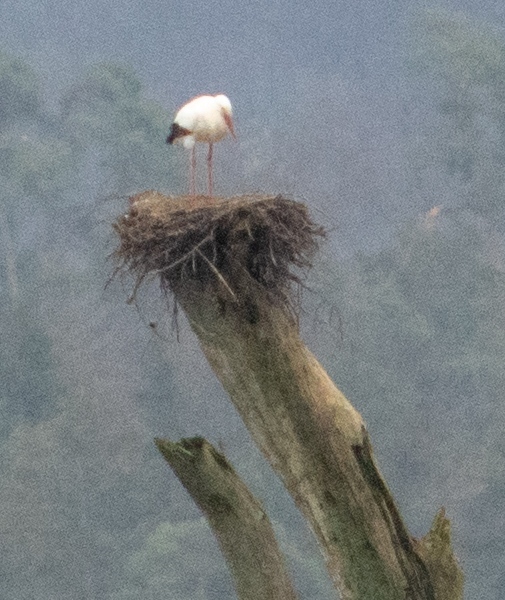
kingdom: Animalia
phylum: Chordata
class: Aves
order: Ciconiiformes
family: Ciconiidae
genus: Ciconia
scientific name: Ciconia ciconia
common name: White stork
